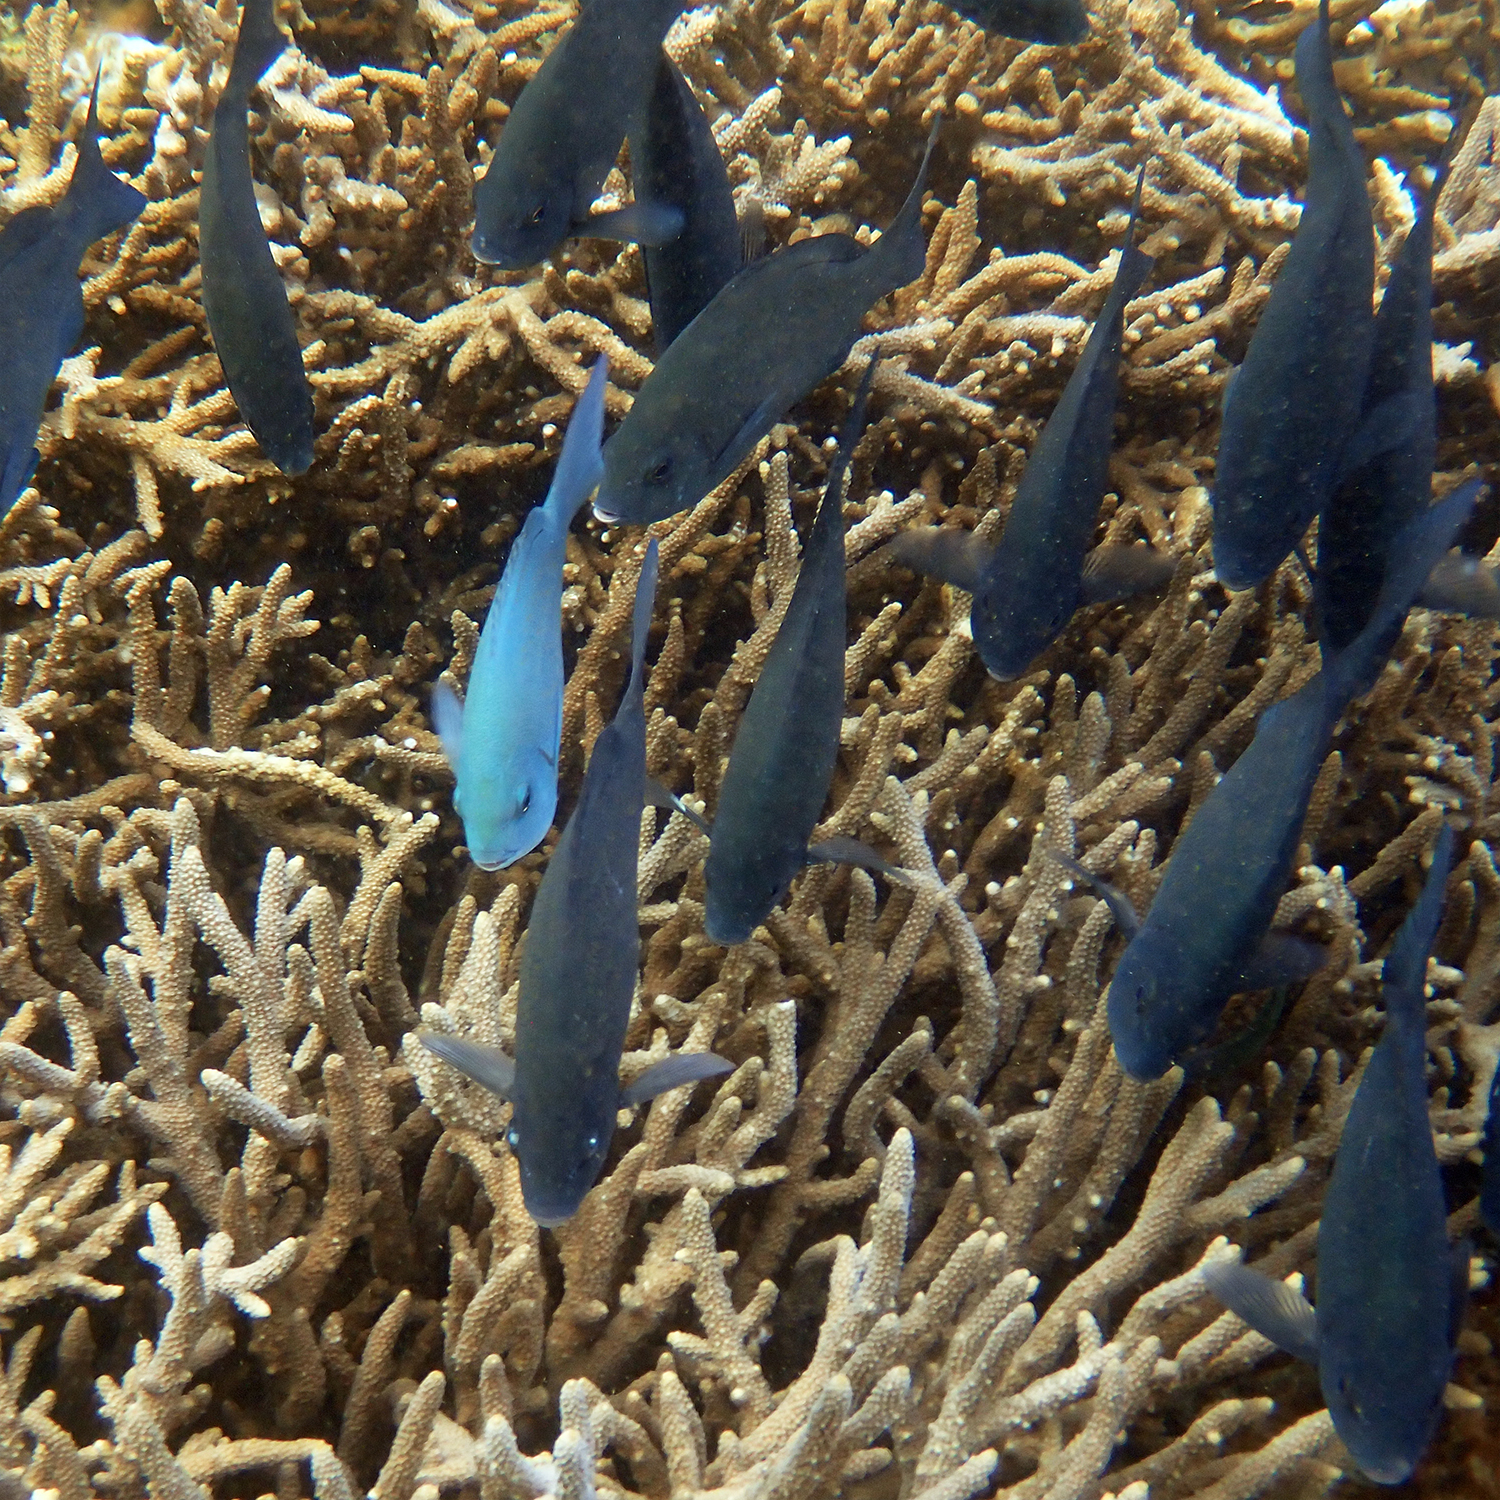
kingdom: Animalia
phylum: Chordata
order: Perciformes
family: Kyphosidae
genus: Girella
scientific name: Girella cyanea
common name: Bluefish
